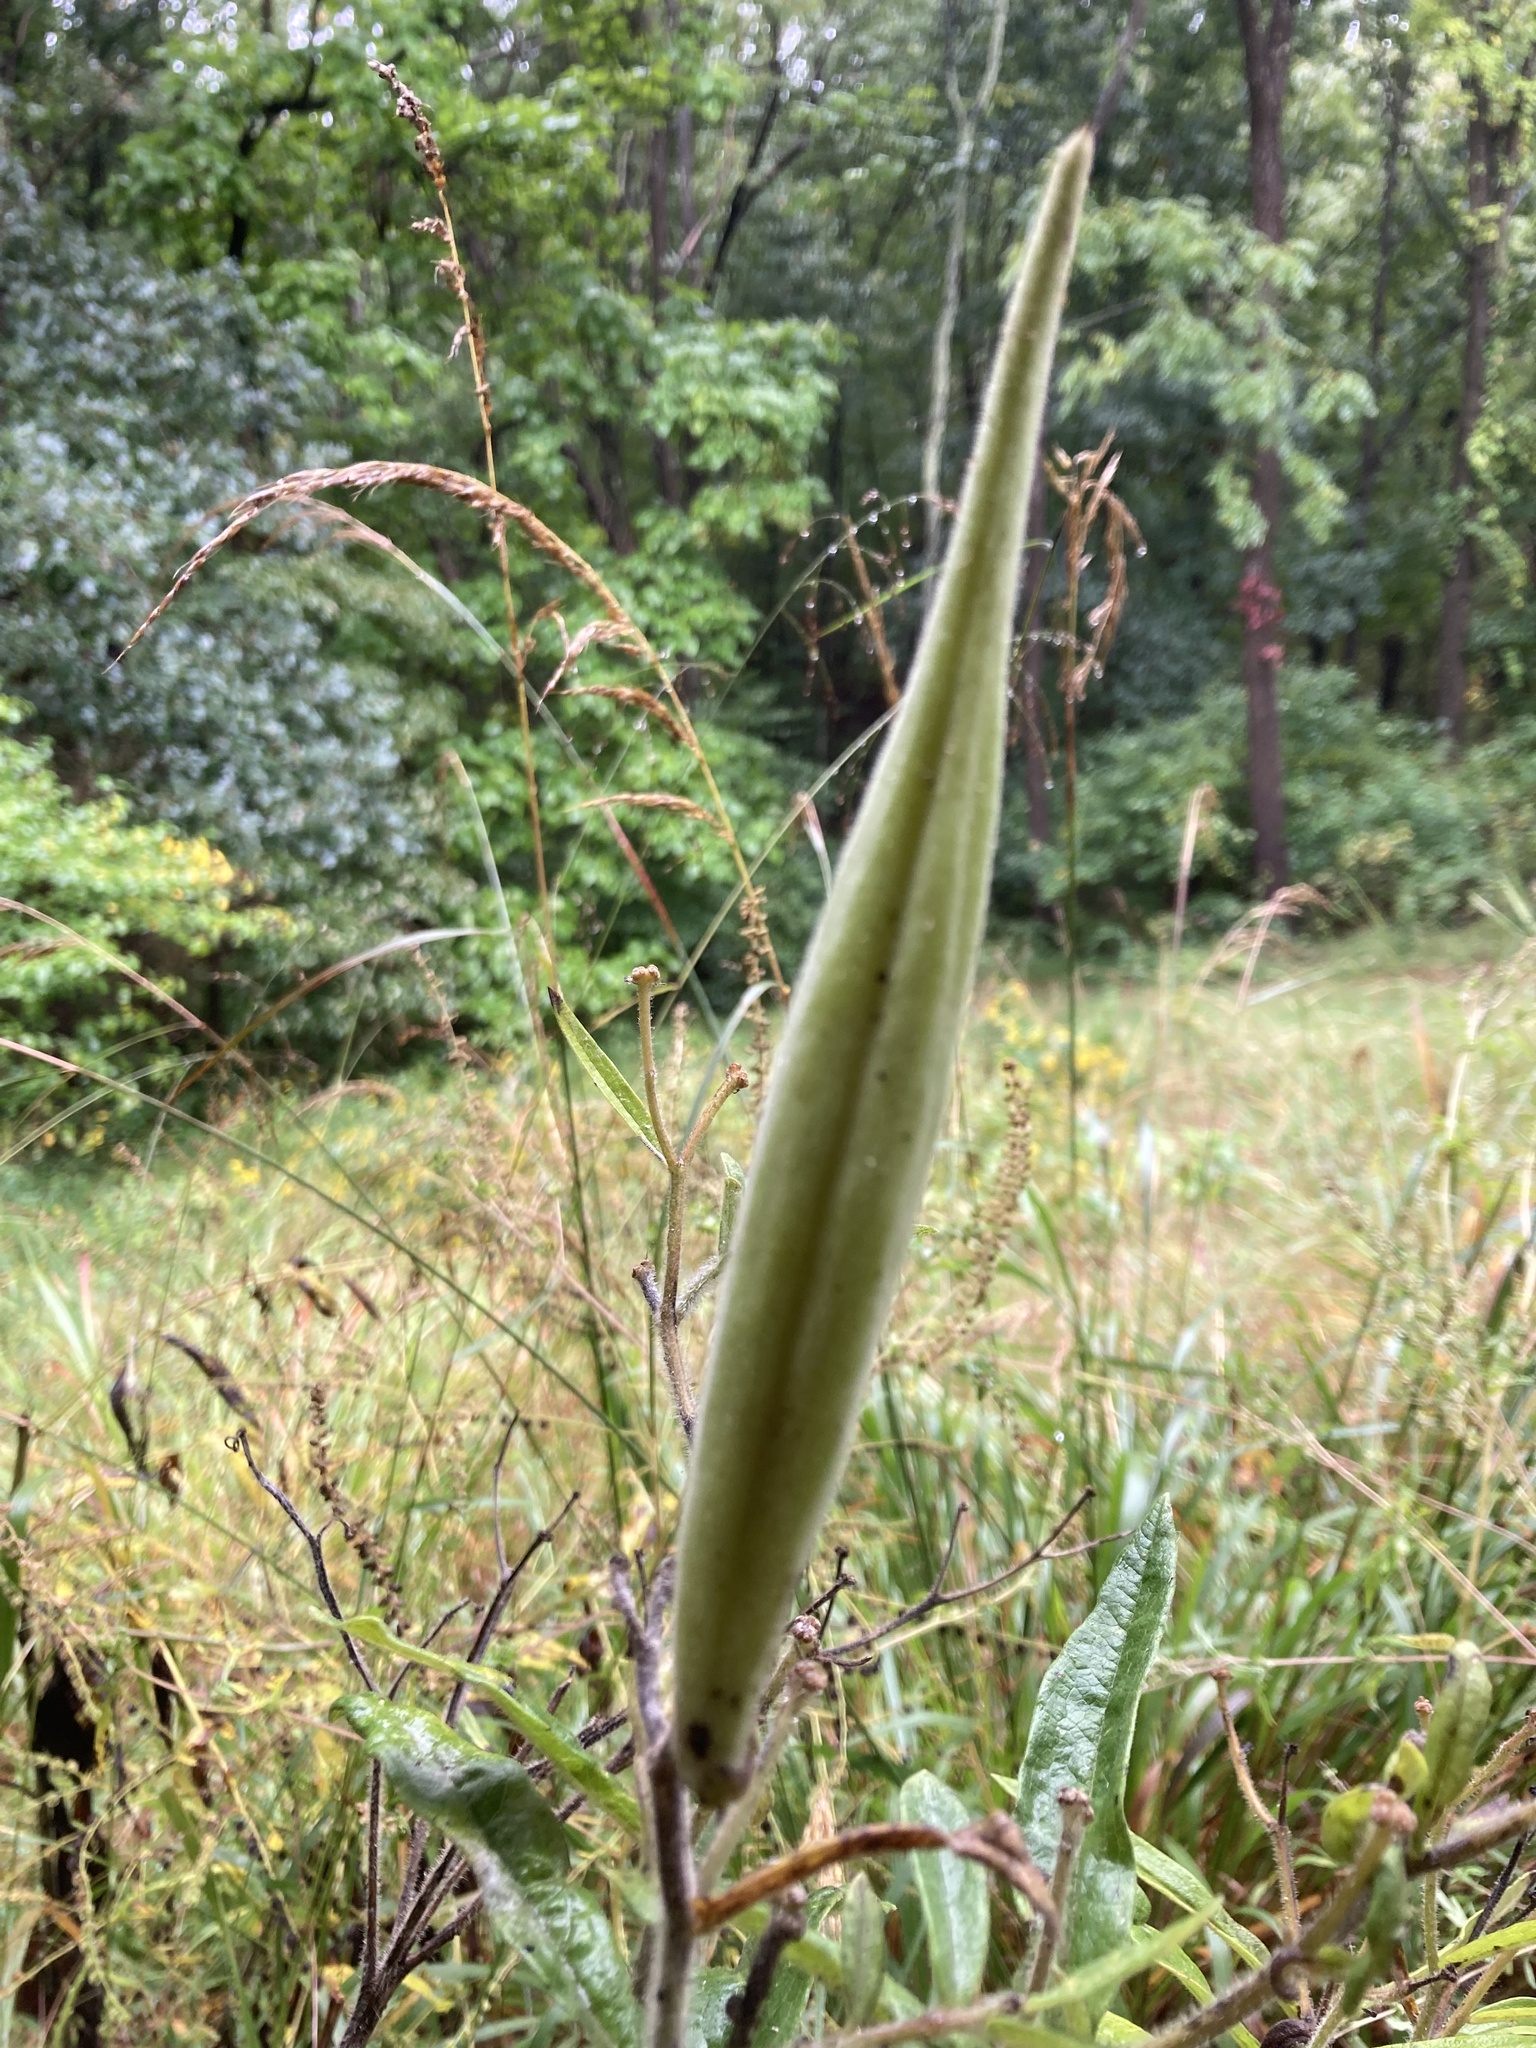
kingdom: Plantae
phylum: Tracheophyta
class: Magnoliopsida
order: Gentianales
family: Apocynaceae
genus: Asclepias
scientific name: Asclepias tuberosa
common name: Butterfly milkweed
